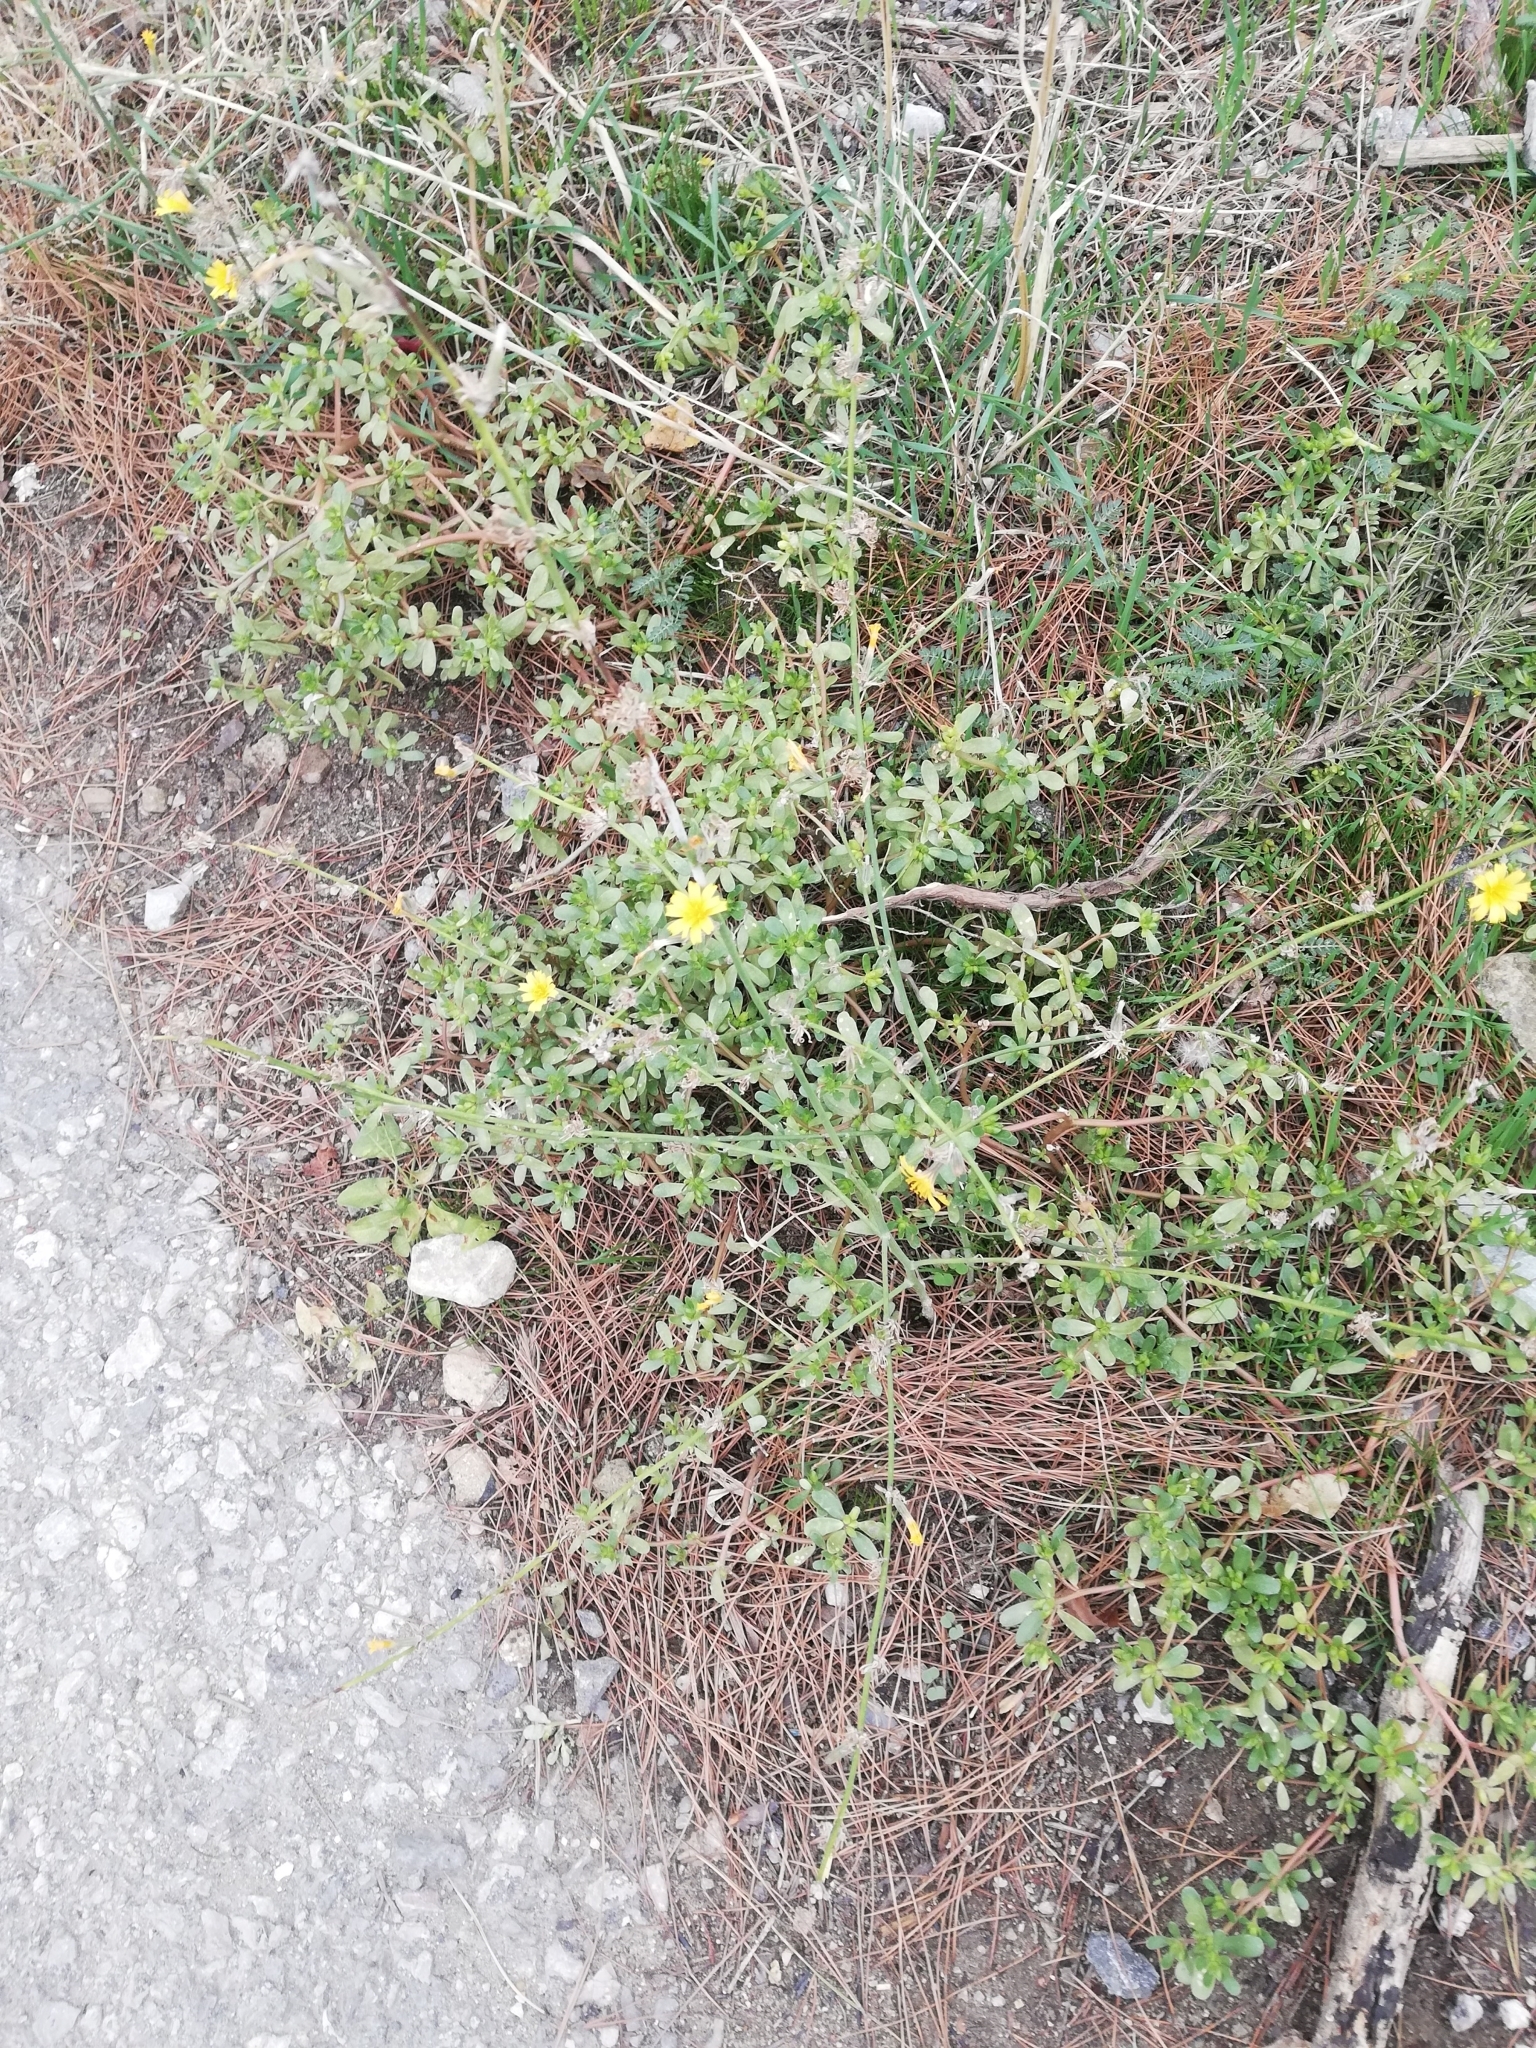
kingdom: Plantae
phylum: Tracheophyta
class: Magnoliopsida
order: Asterales
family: Asteraceae
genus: Chondrilla
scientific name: Chondrilla juncea
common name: Skeleton weed
